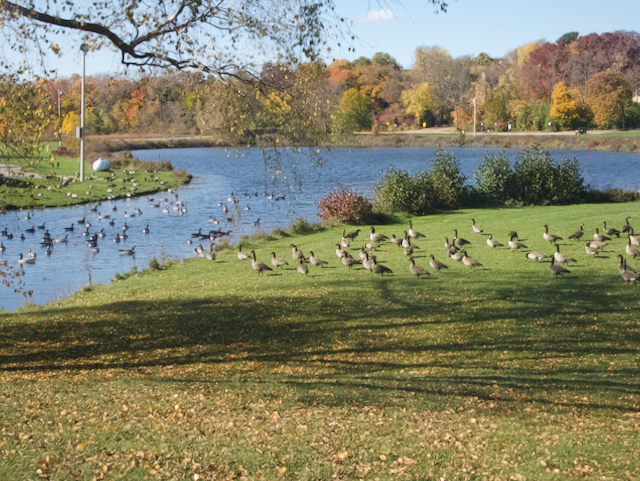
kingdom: Animalia
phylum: Chordata
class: Aves
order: Anseriformes
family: Anatidae
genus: Branta
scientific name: Branta canadensis
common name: Canada goose
